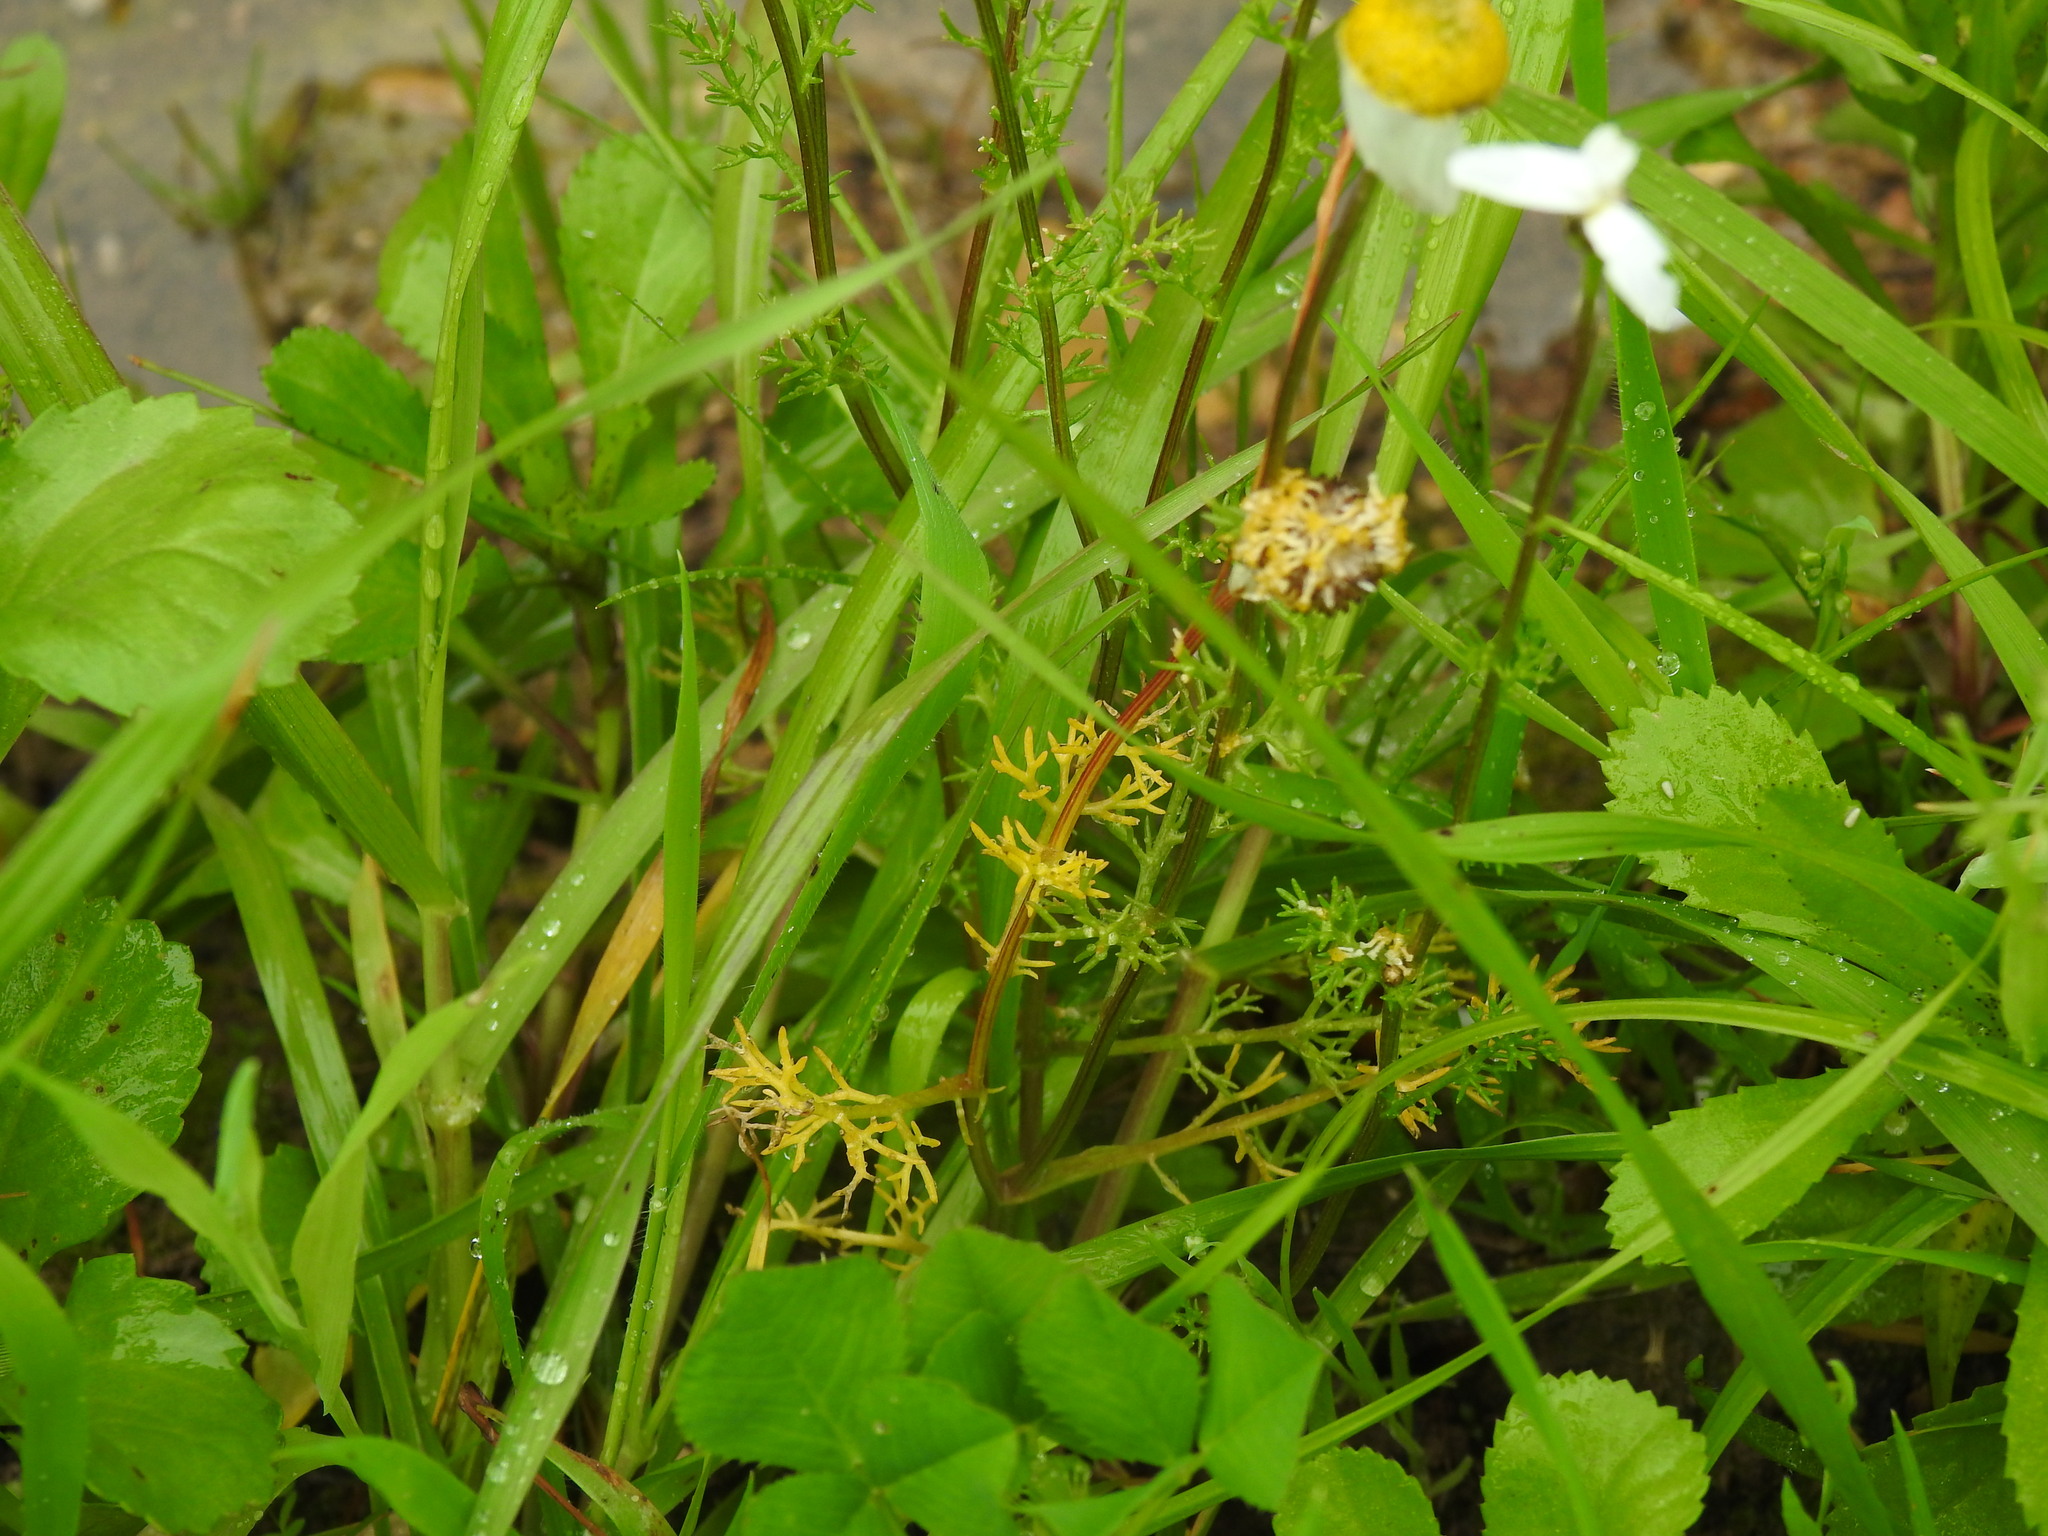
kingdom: Plantae
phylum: Tracheophyta
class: Magnoliopsida
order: Asterales
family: Asteraceae
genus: Chamaemelum
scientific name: Chamaemelum fuscatum
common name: Chamomile
